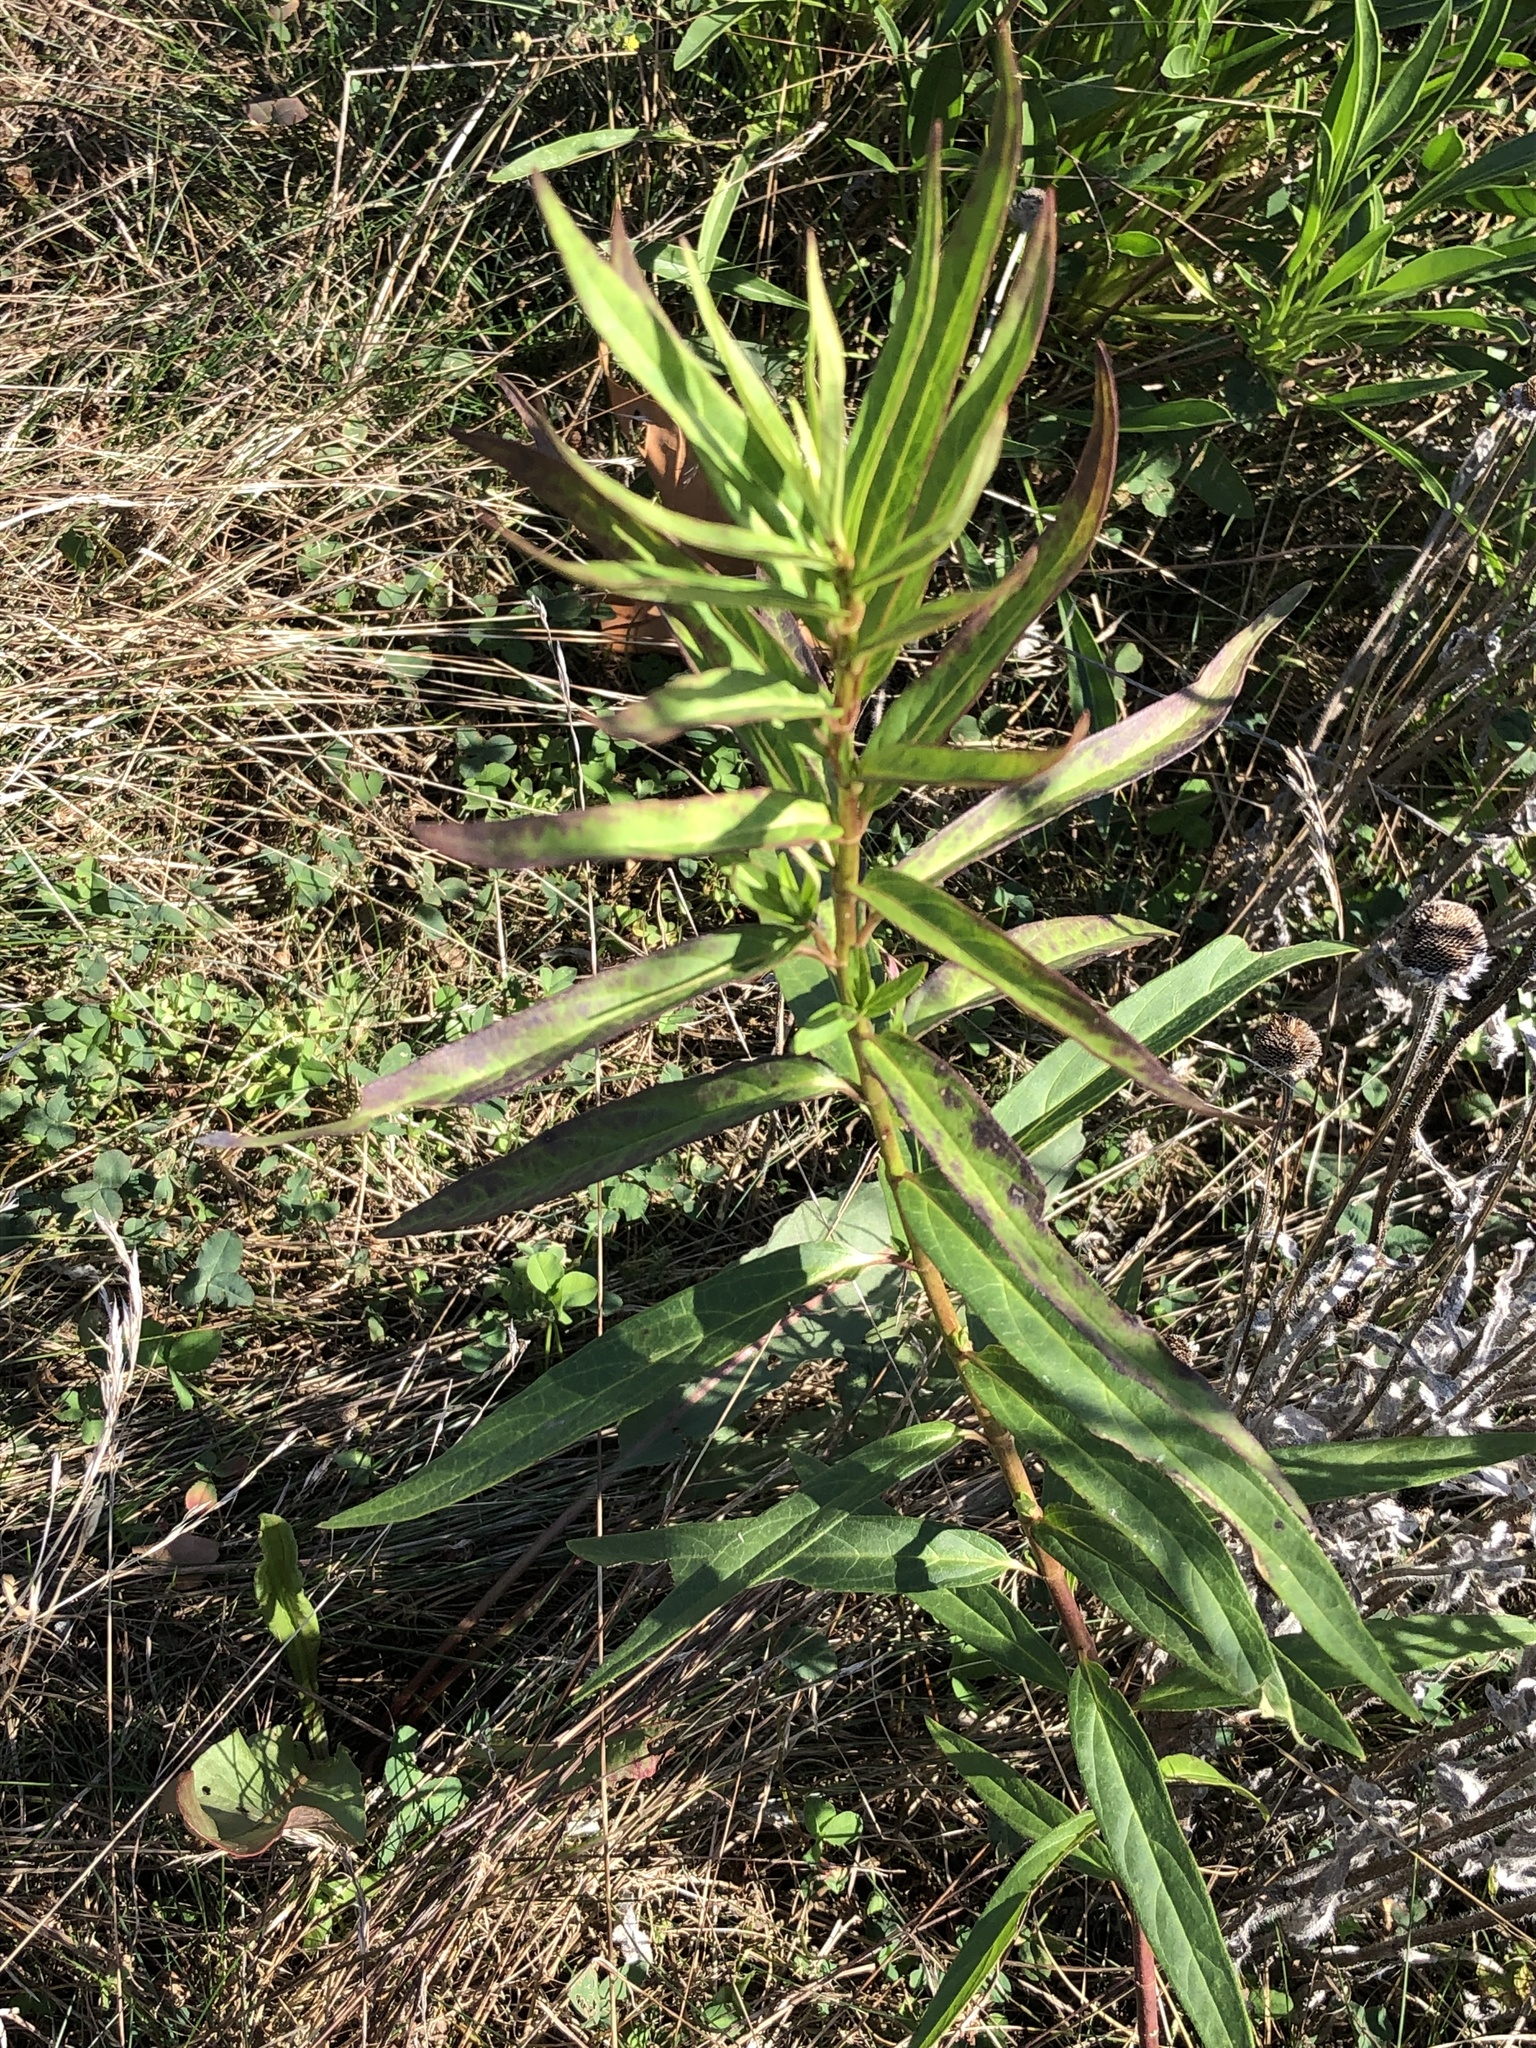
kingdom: Plantae
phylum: Tracheophyta
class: Magnoliopsida
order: Gentianales
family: Apocynaceae
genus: Asclepias
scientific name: Asclepias incarnata
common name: Swamp milkweed
